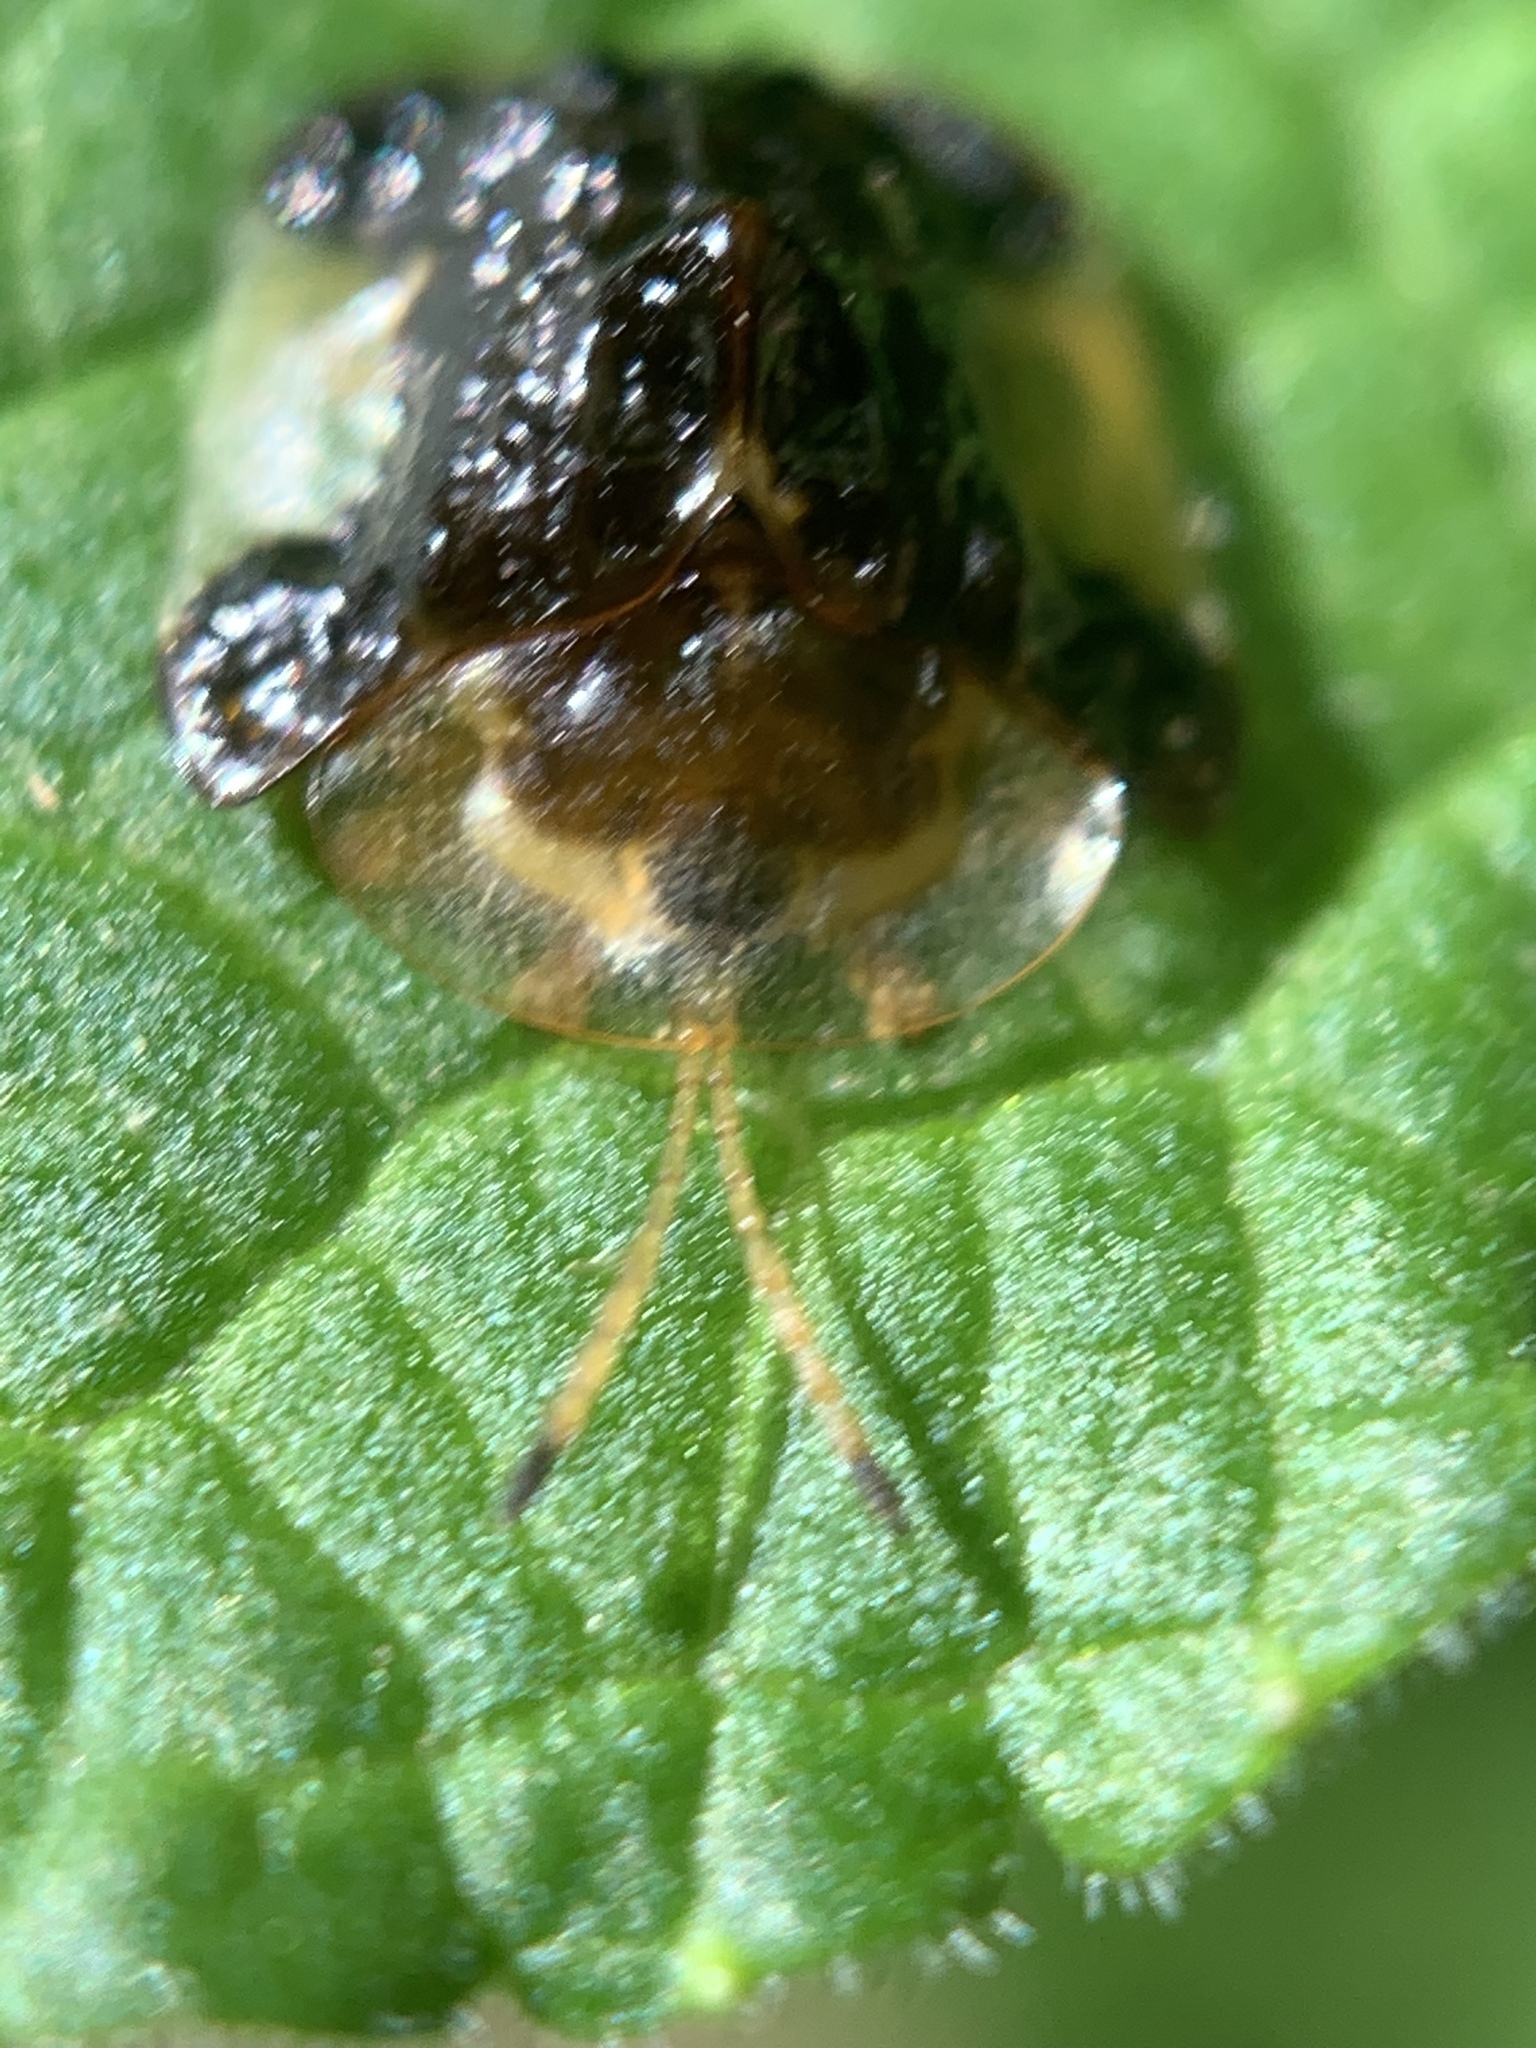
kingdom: Animalia
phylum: Arthropoda
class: Insecta
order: Coleoptera
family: Chrysomelidae
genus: Helocassis
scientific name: Helocassis clavata
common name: Clavate tortoise beetle
